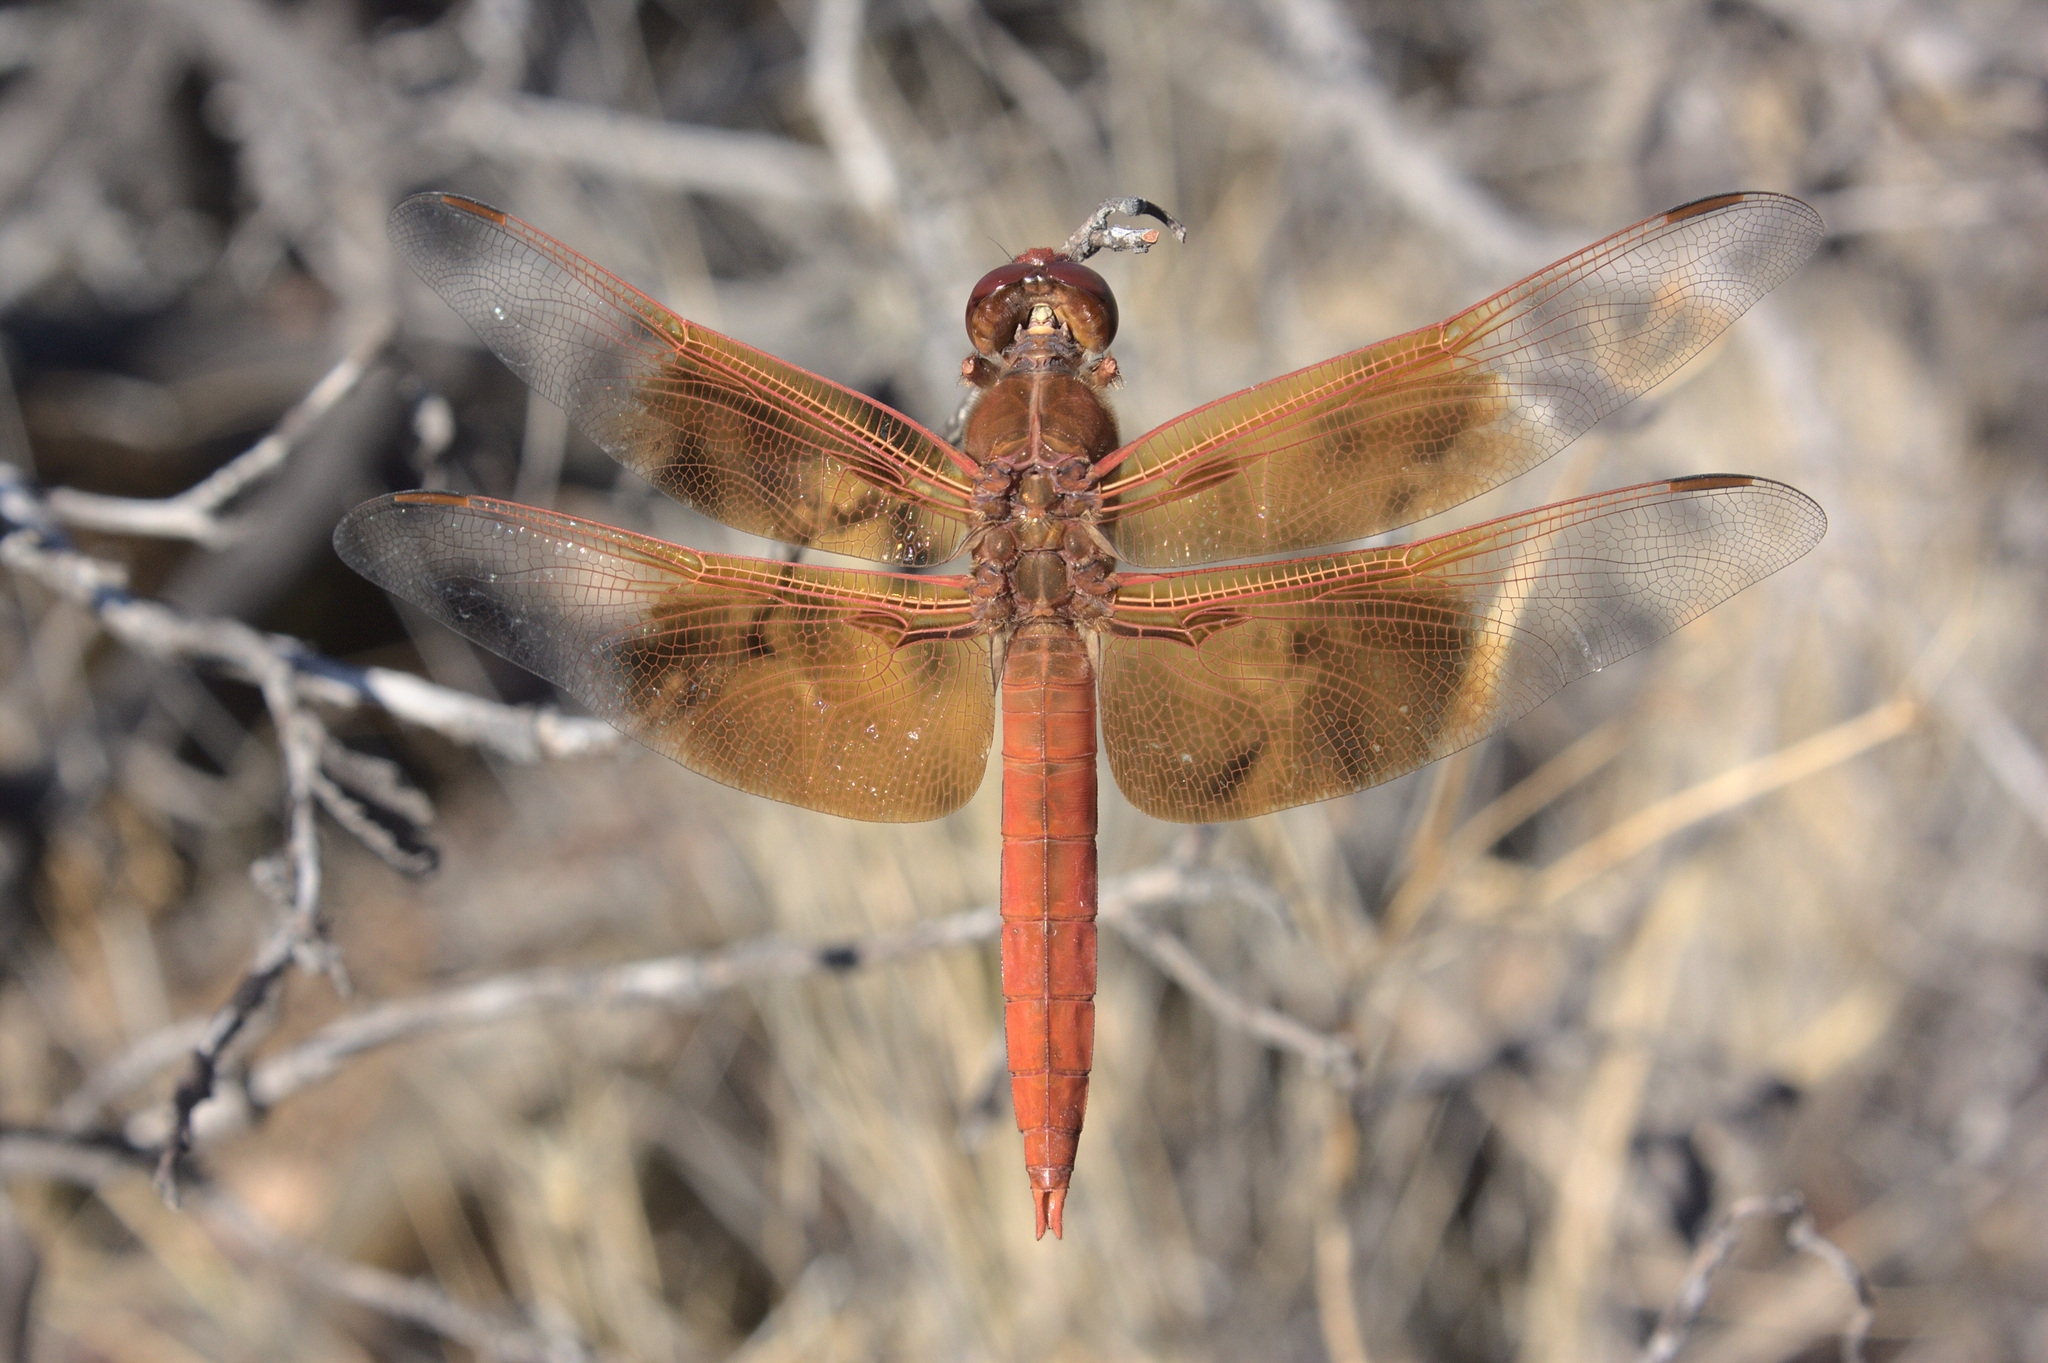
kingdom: Animalia
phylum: Arthropoda
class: Insecta
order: Odonata
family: Libellulidae
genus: Libellula
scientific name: Libellula saturata
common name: Flame skimmer
